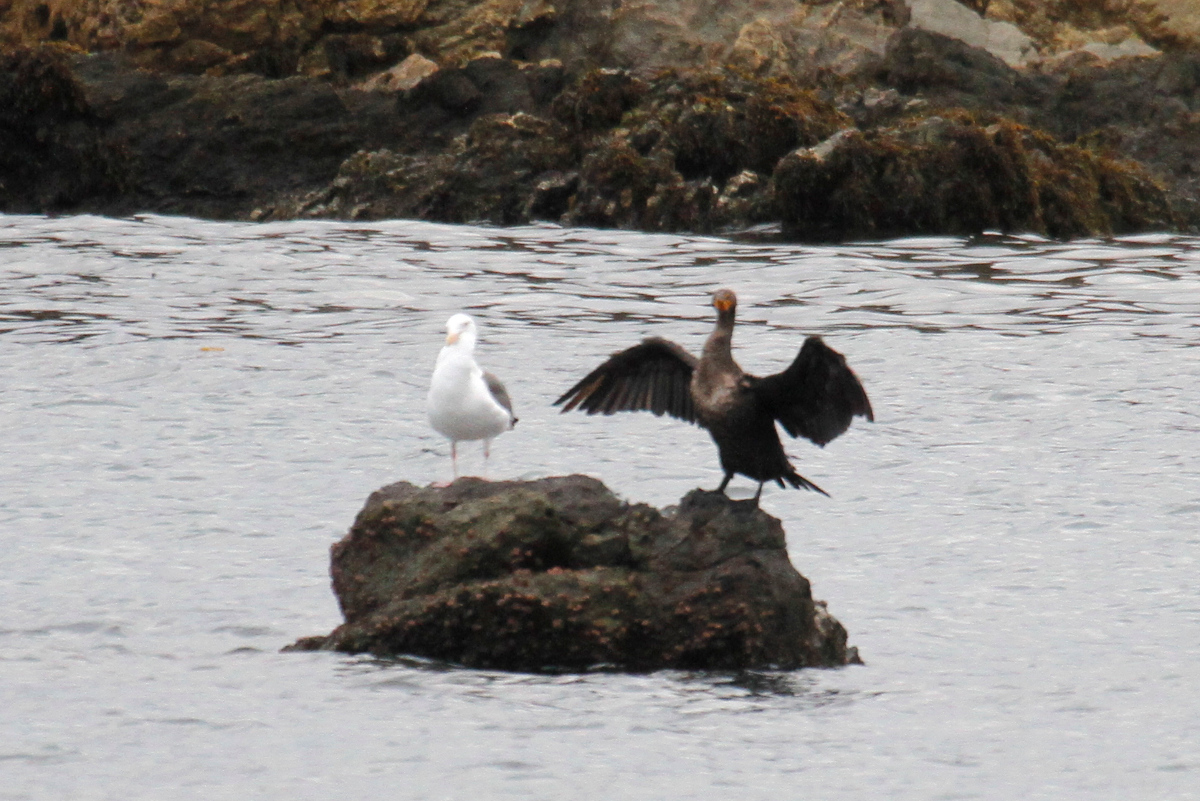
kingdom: Animalia
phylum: Chordata
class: Aves
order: Charadriiformes
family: Laridae
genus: Larus
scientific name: Larus occidentalis
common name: Western gull
